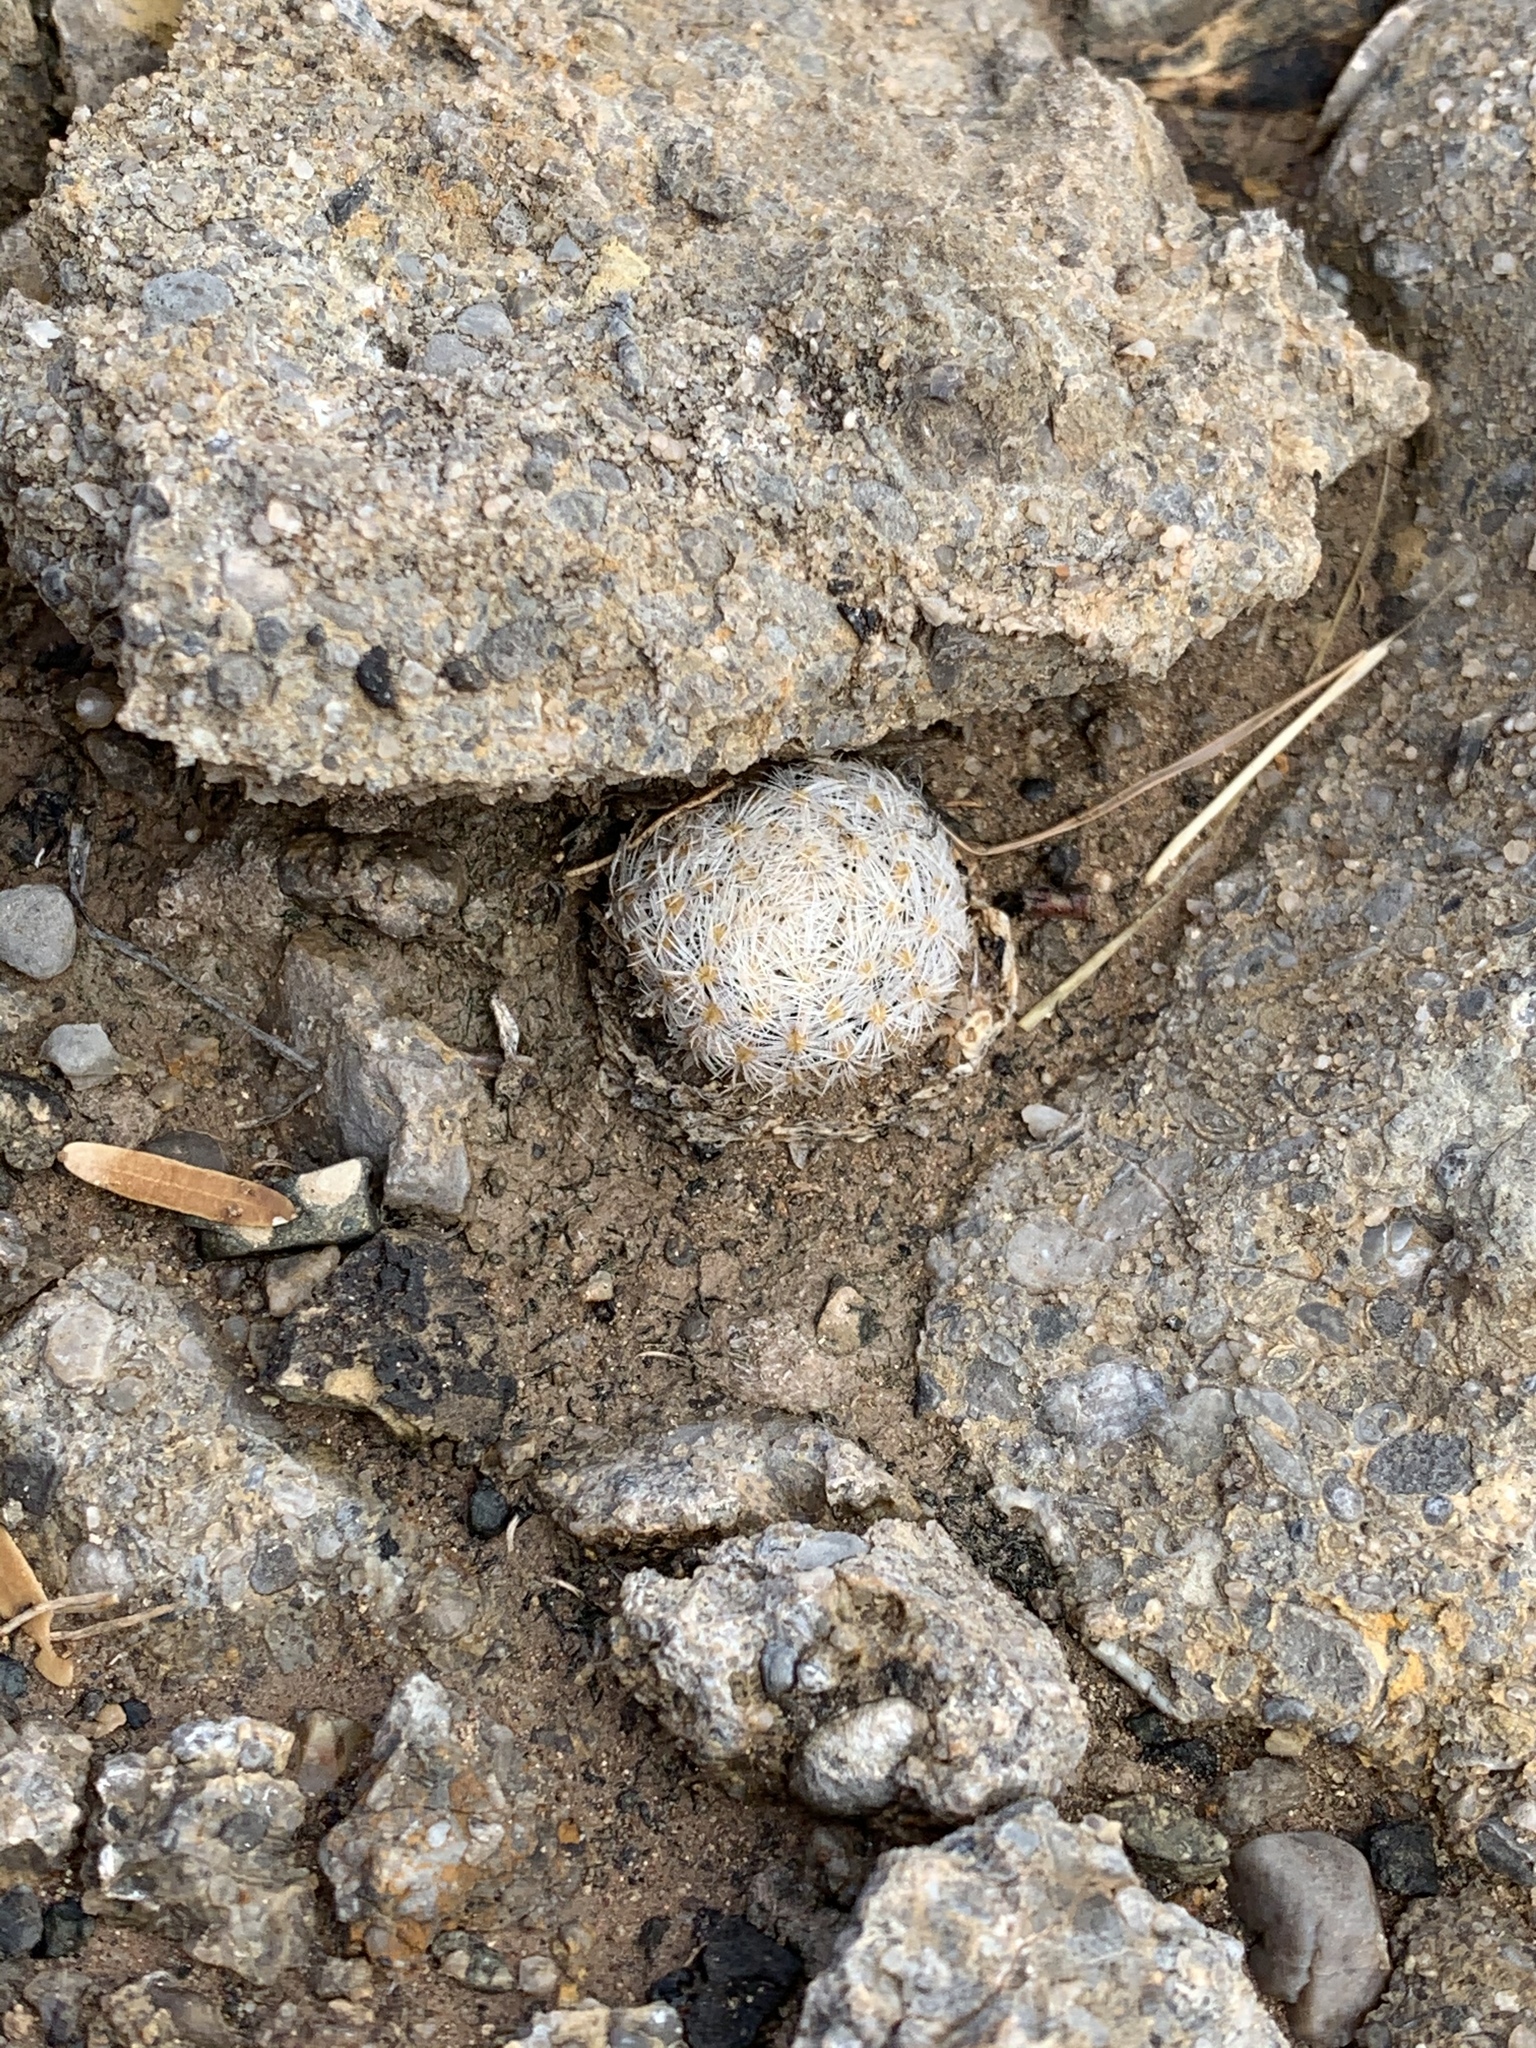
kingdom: Plantae
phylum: Tracheophyta
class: Magnoliopsida
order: Caryophyllales
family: Cactaceae
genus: Mammillaria
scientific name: Mammillaria lasiacantha
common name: Lace-spine nipple cactus
